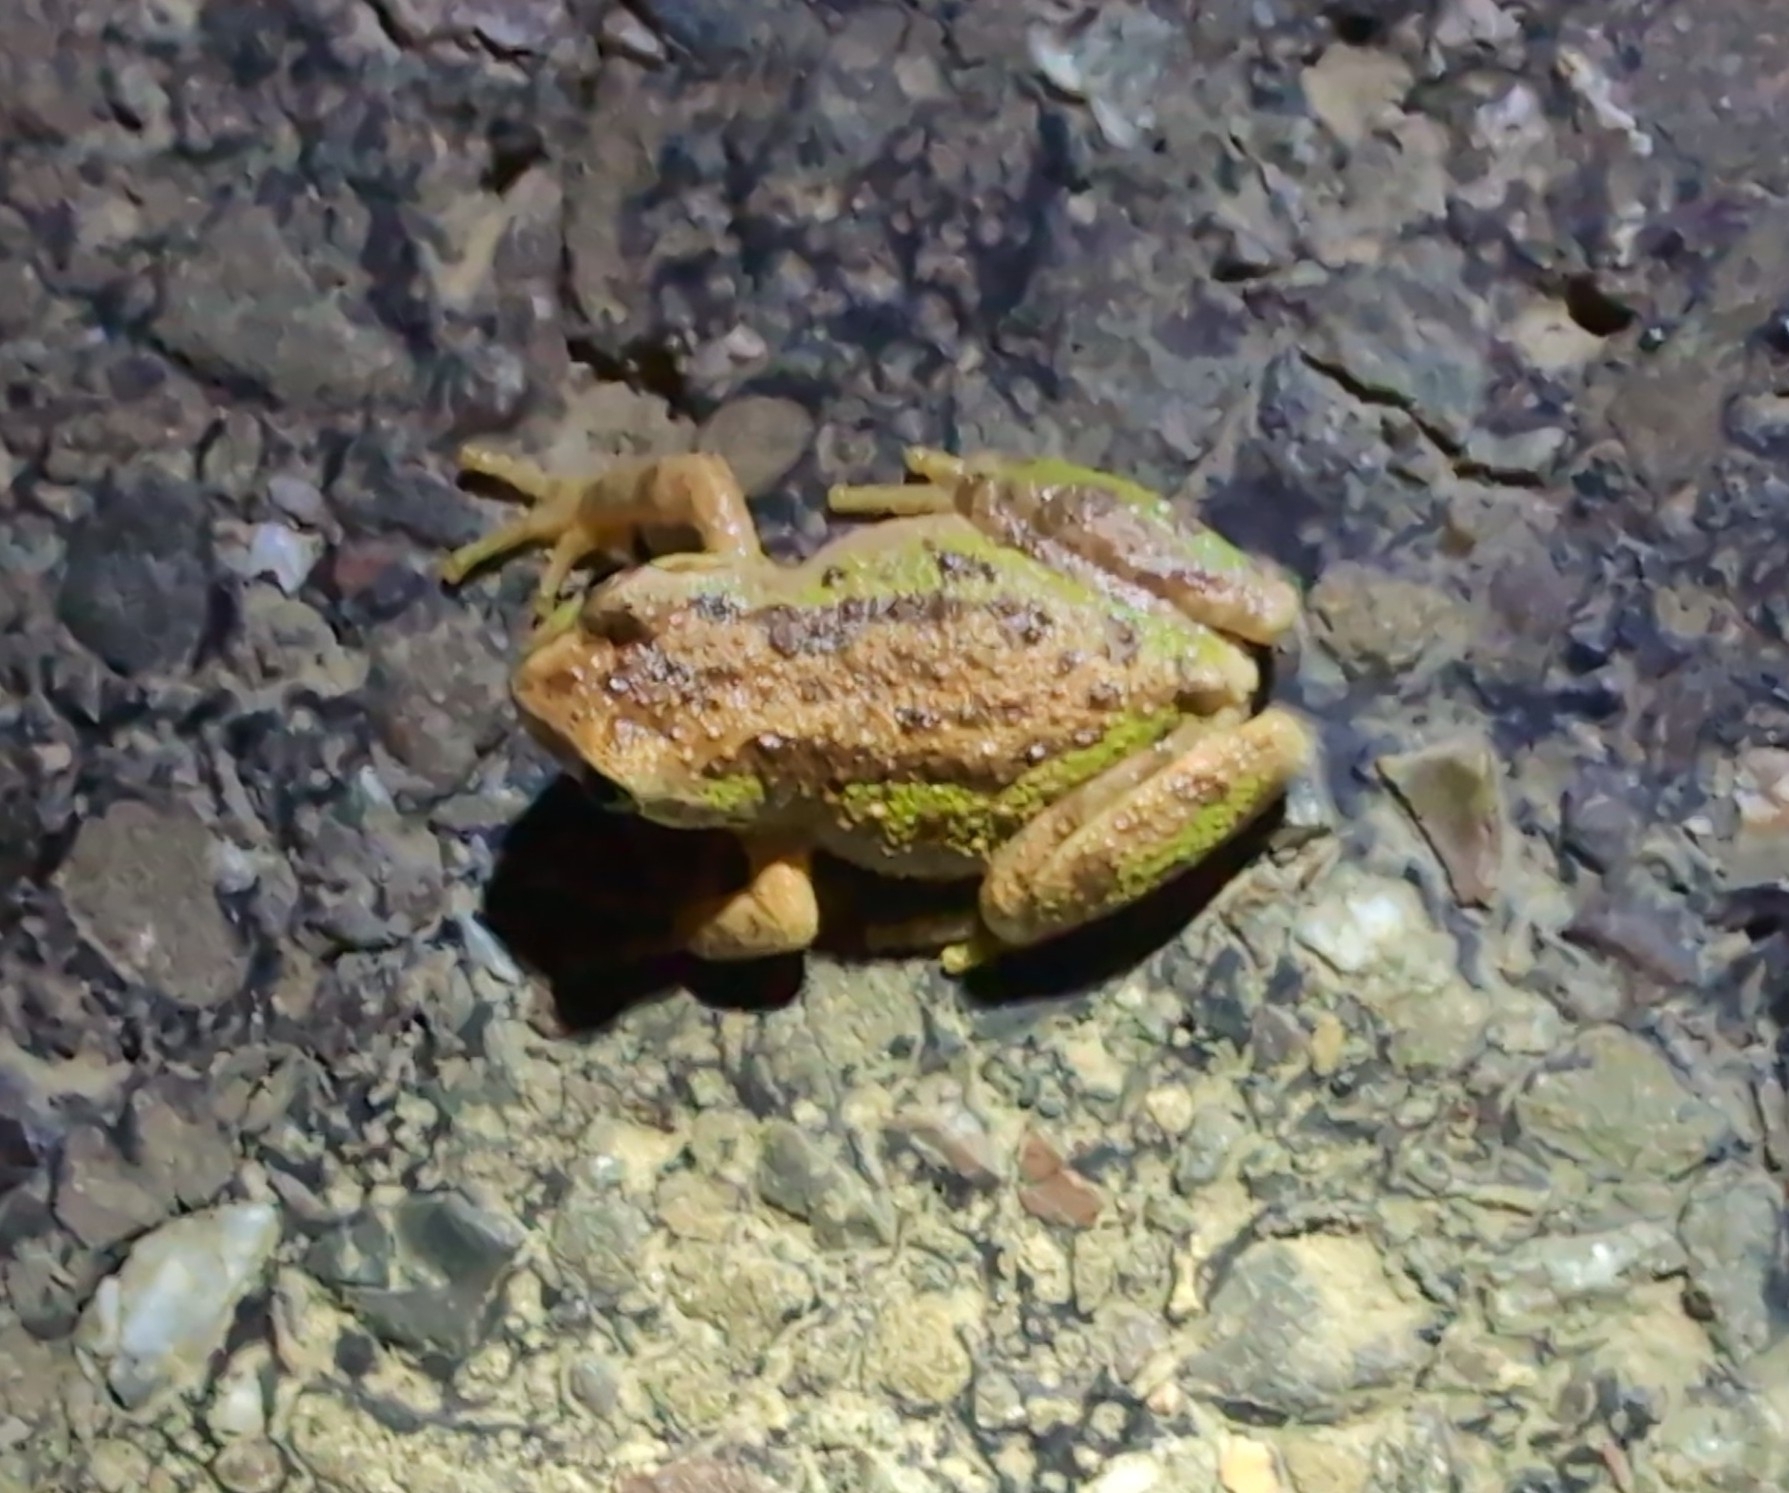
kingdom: Animalia
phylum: Chordata
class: Amphibia
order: Anura
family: Hylidae
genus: Pseudacris
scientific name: Pseudacris regilla
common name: Pacific chorus frog
